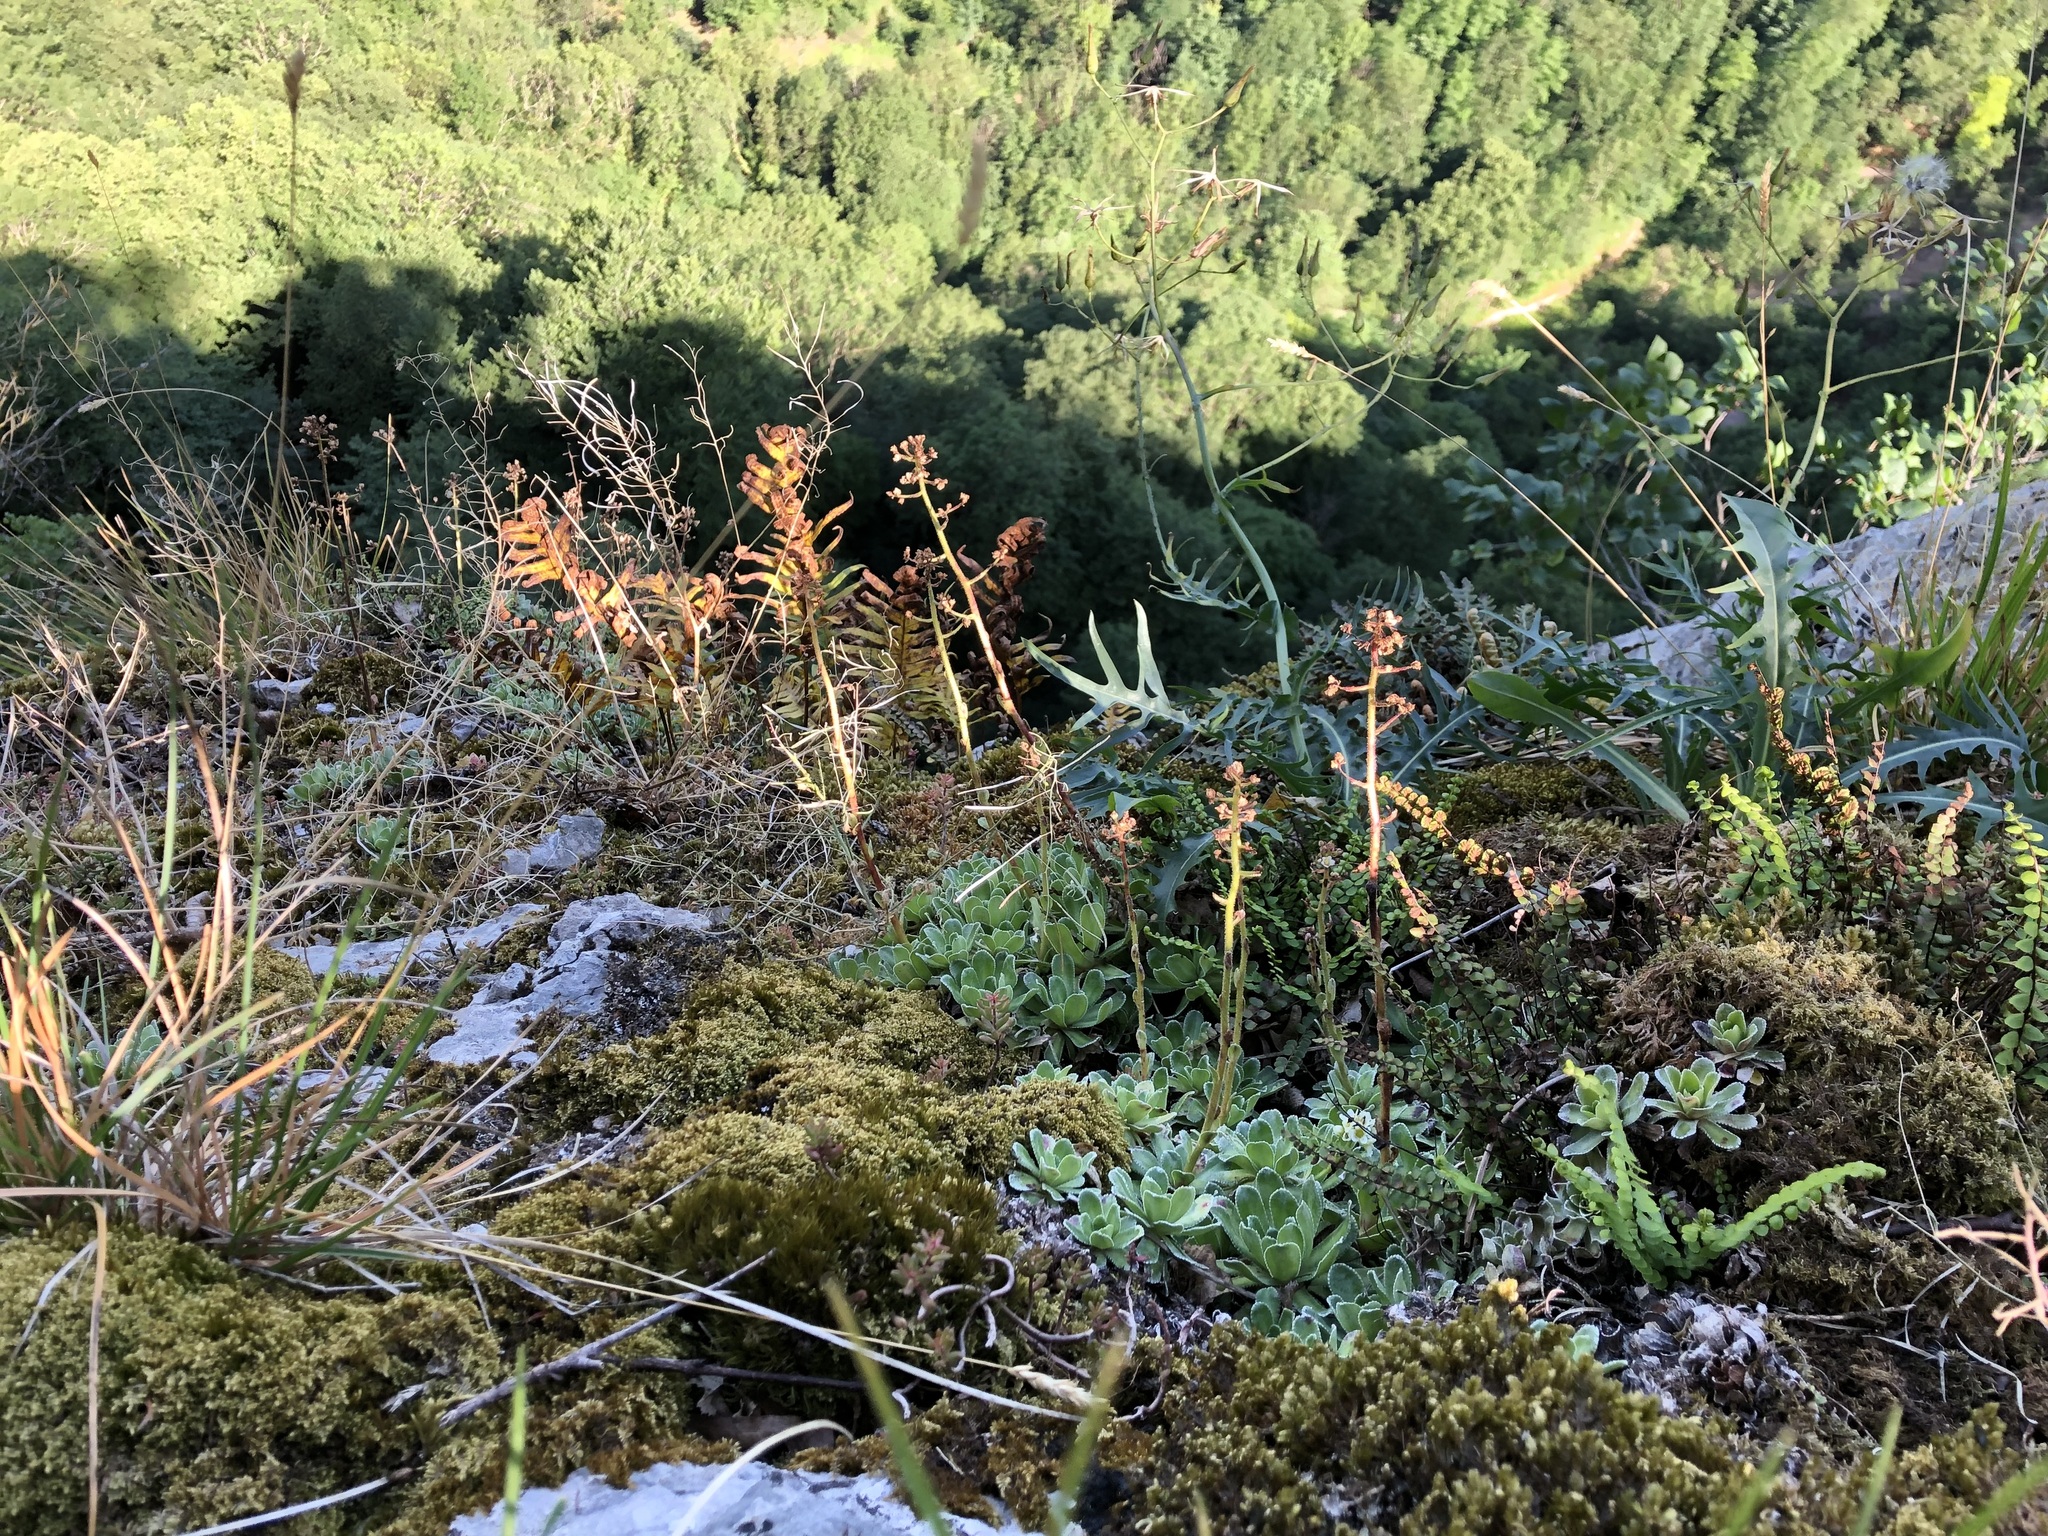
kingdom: Plantae
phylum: Tracheophyta
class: Magnoliopsida
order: Saxifragales
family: Saxifragaceae
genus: Saxifraga
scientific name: Saxifraga paniculata
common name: Livelong saxifrage
